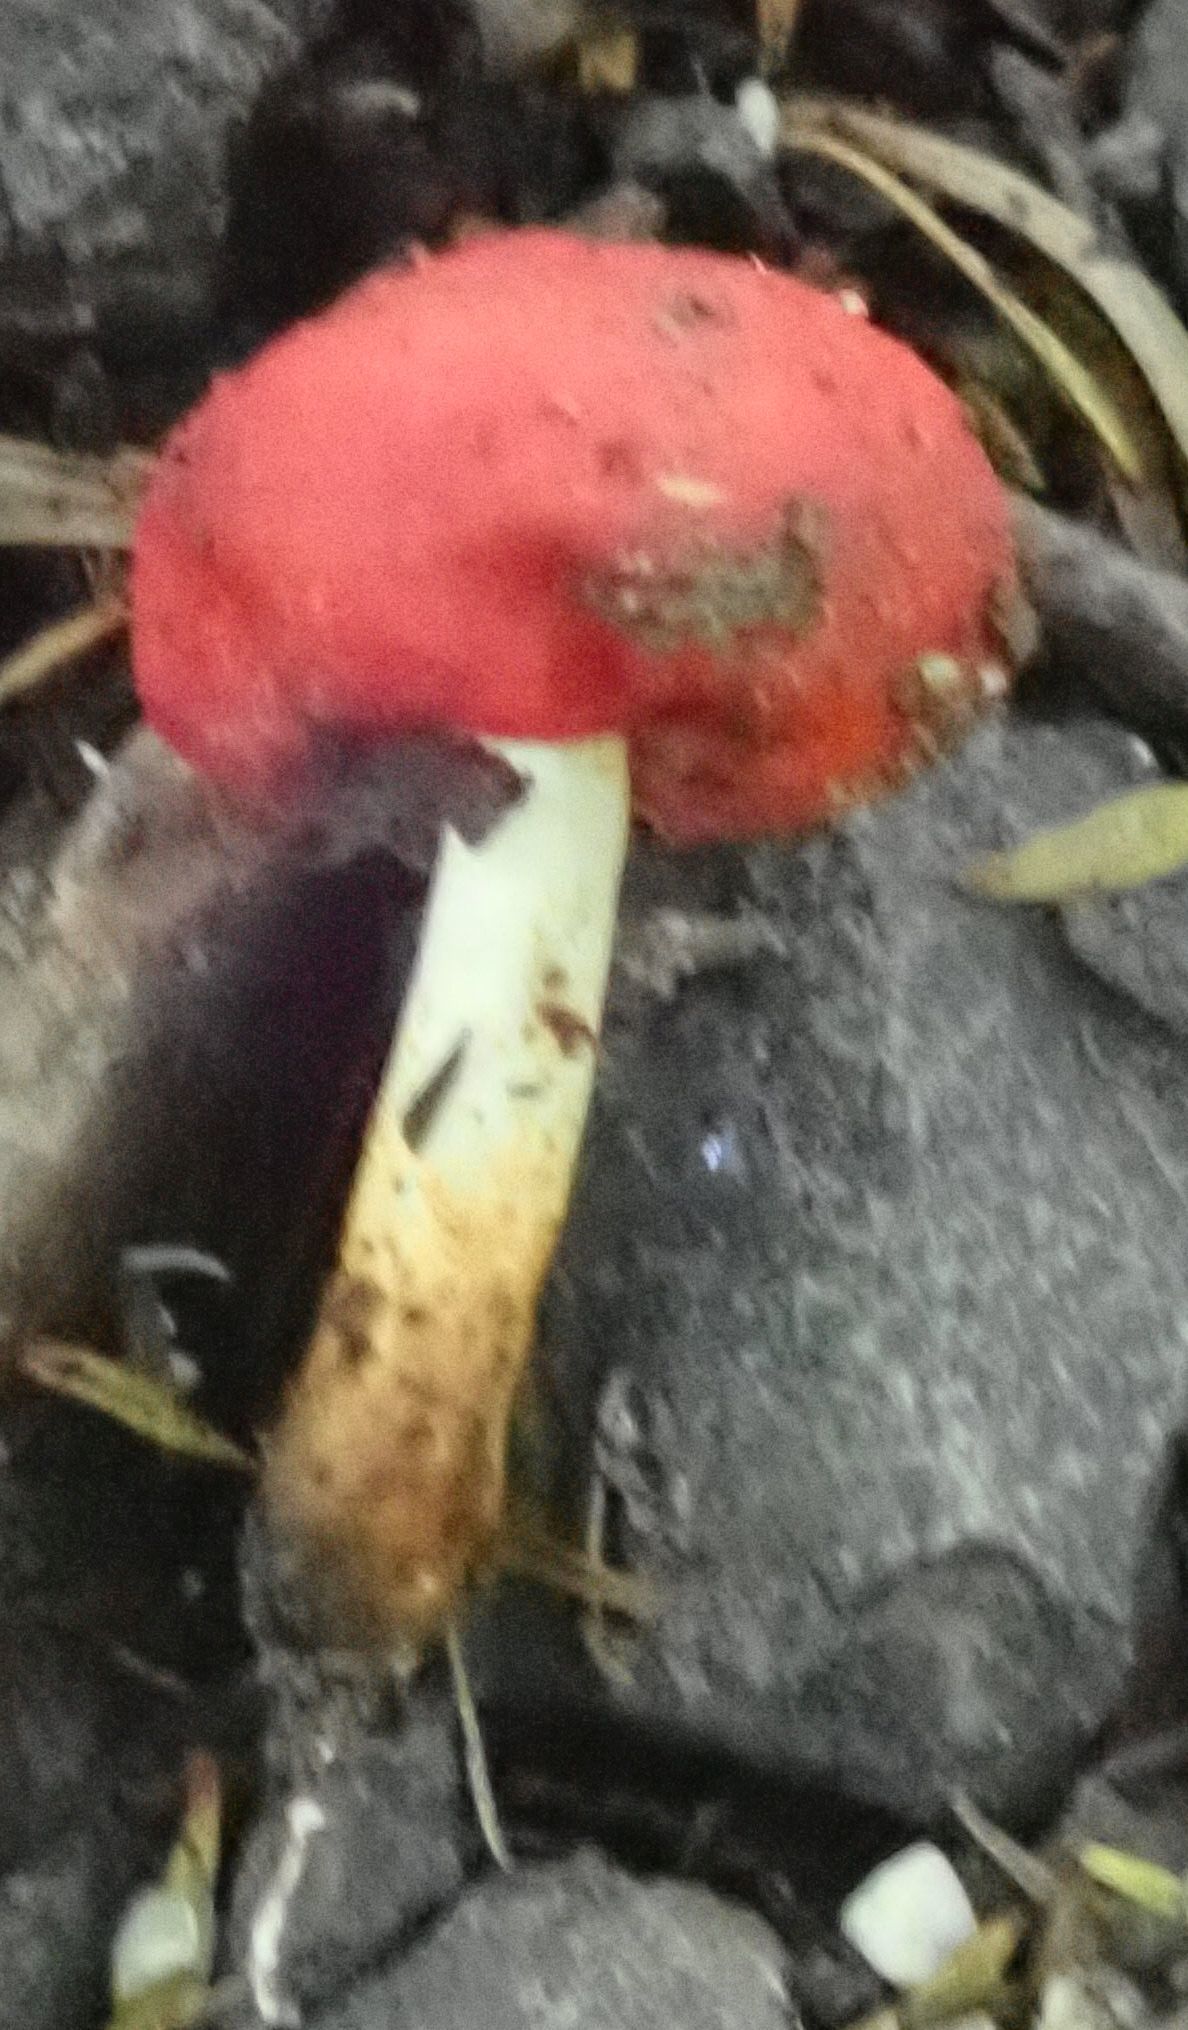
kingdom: Fungi
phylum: Basidiomycota
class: Agaricomycetes
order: Agaricales
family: Strophariaceae
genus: Leratiomyces
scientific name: Leratiomyces erythrocephalus
